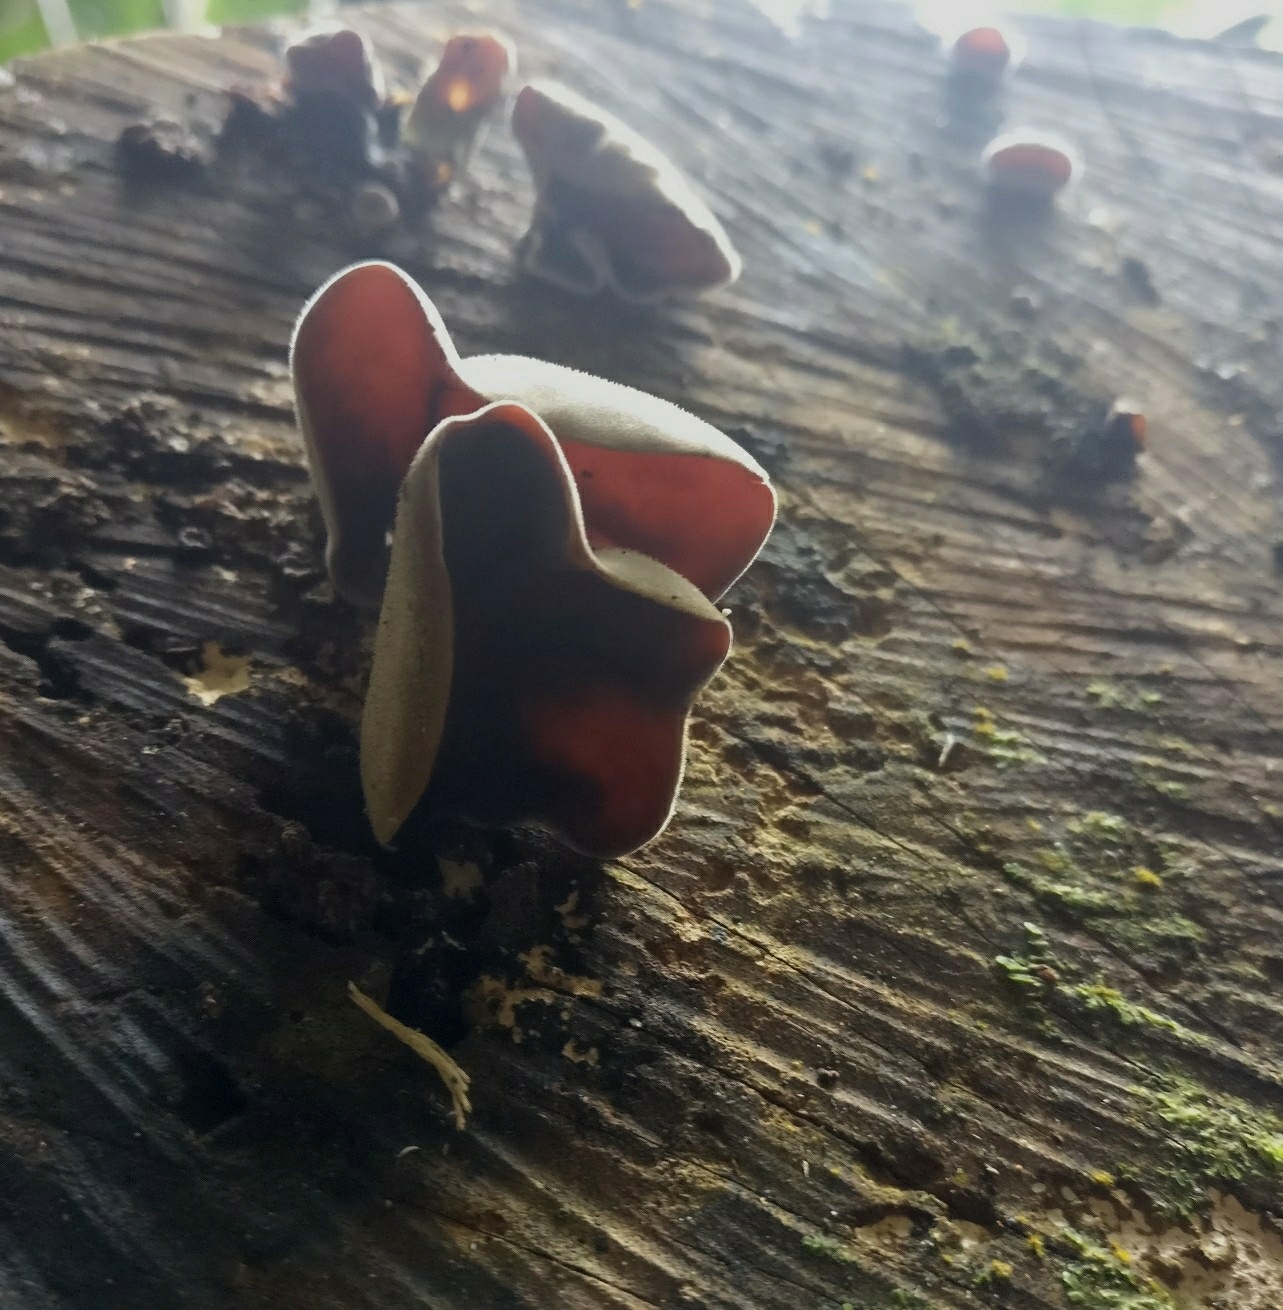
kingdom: Fungi
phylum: Basidiomycota
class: Agaricomycetes
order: Auriculariales
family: Auriculariaceae
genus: Auricularia
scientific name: Auricularia cornea
